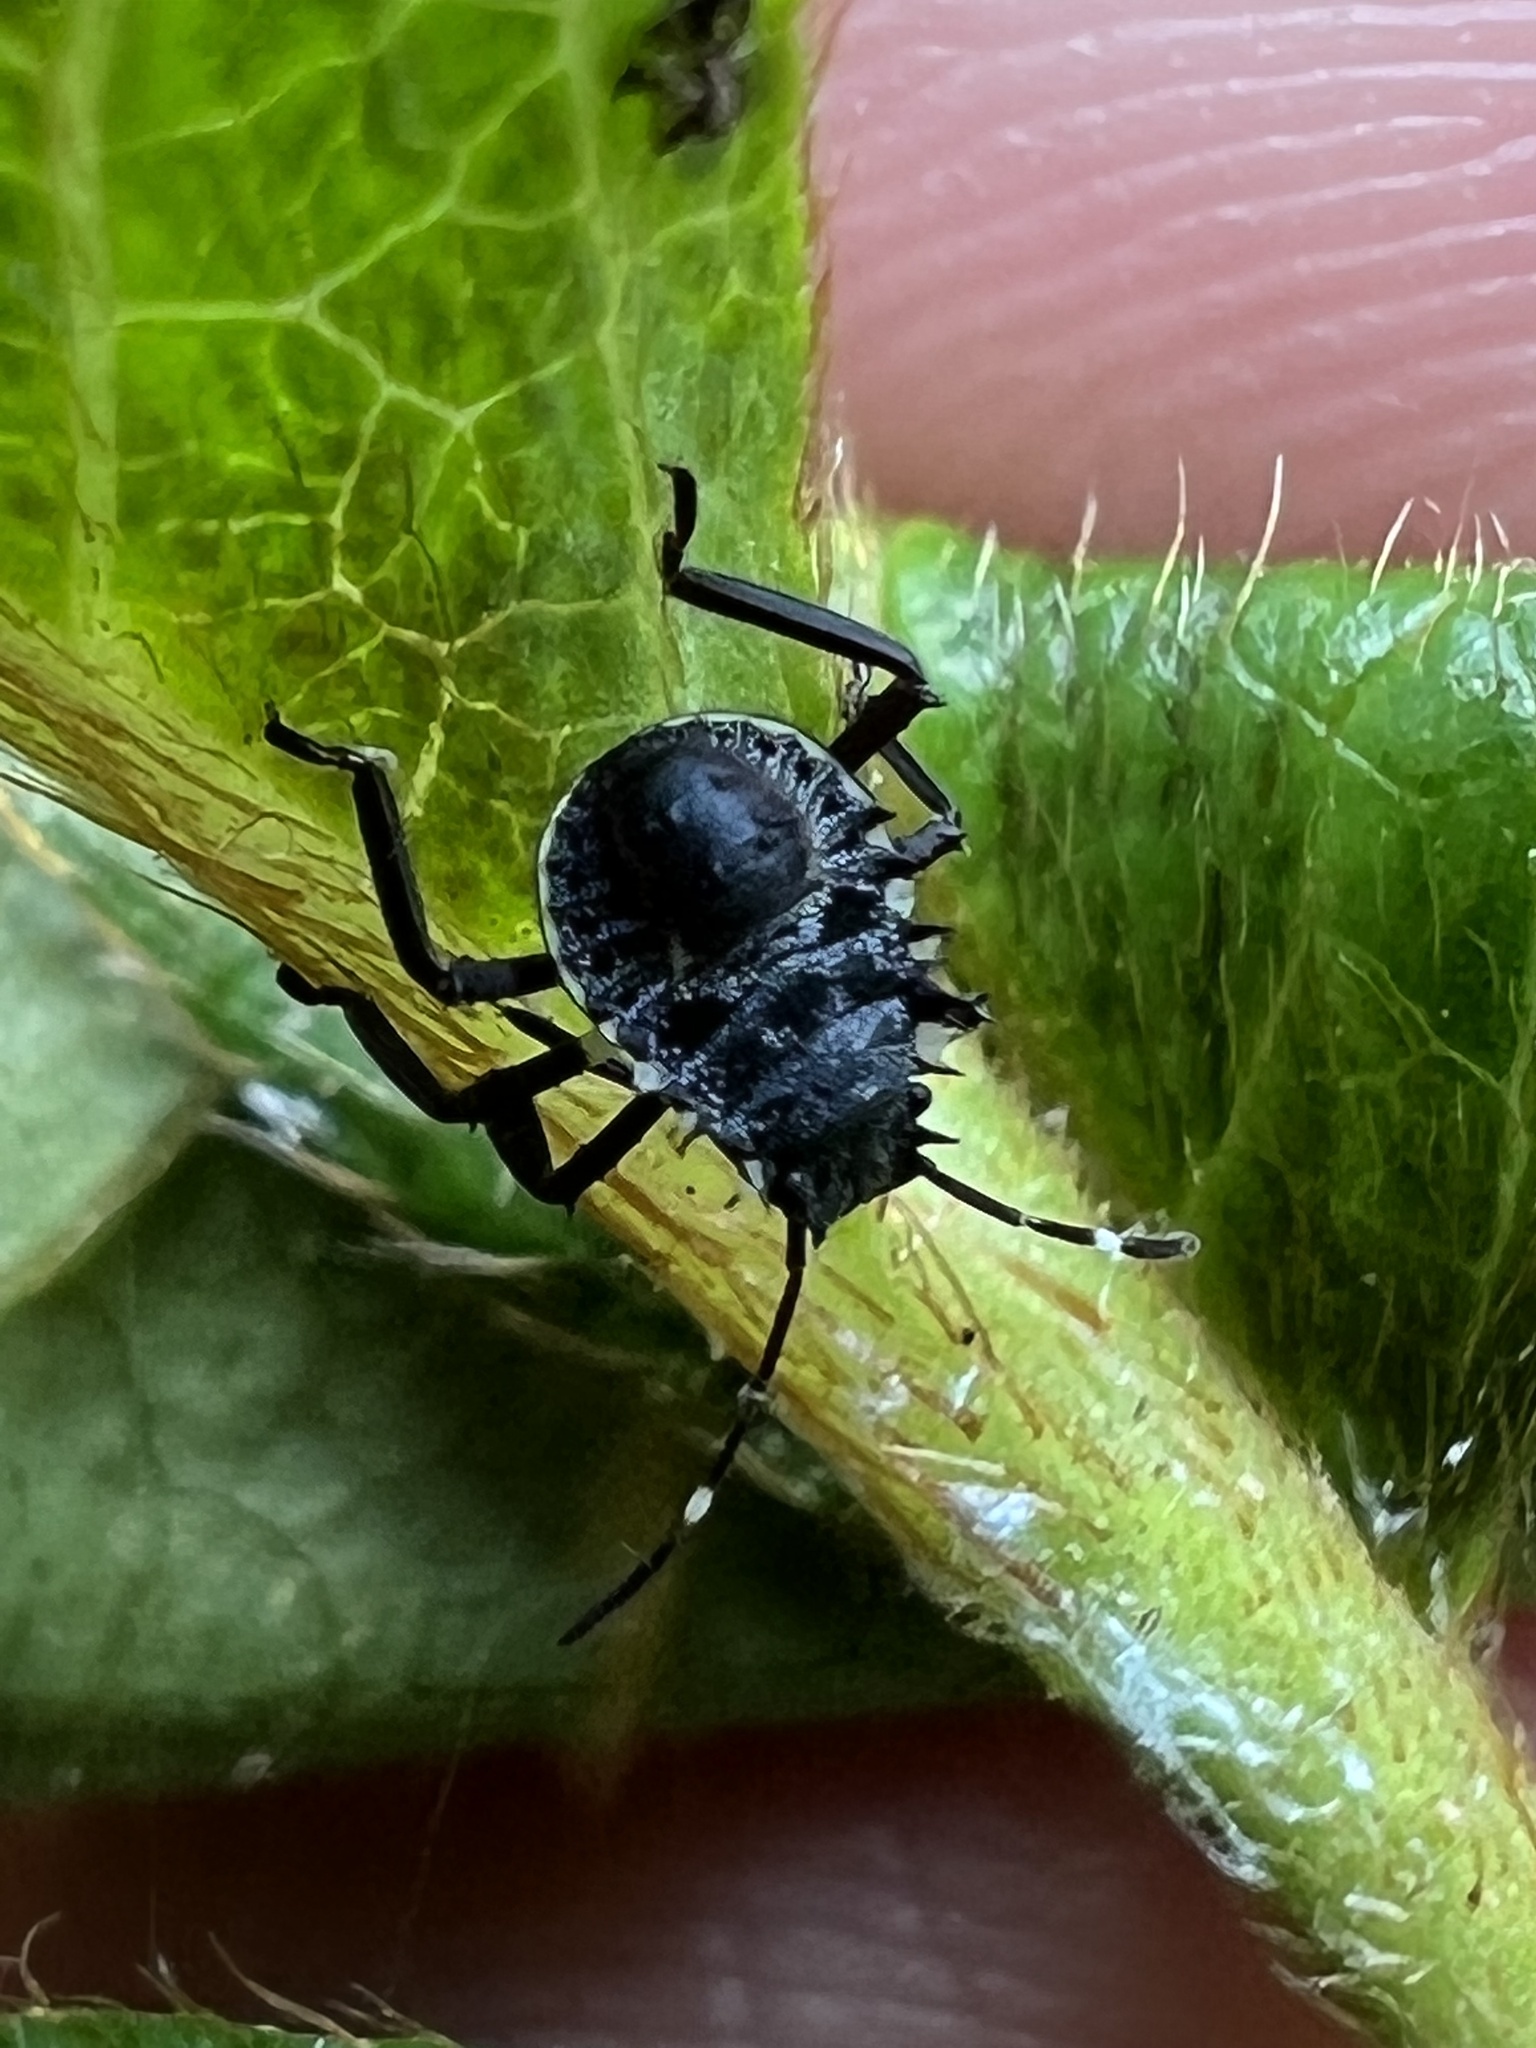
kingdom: Animalia
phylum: Arthropoda
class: Insecta
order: Hemiptera
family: Pentatomidae
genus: Halyomorpha
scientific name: Halyomorpha halys
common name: Brown marmorated stink bug
